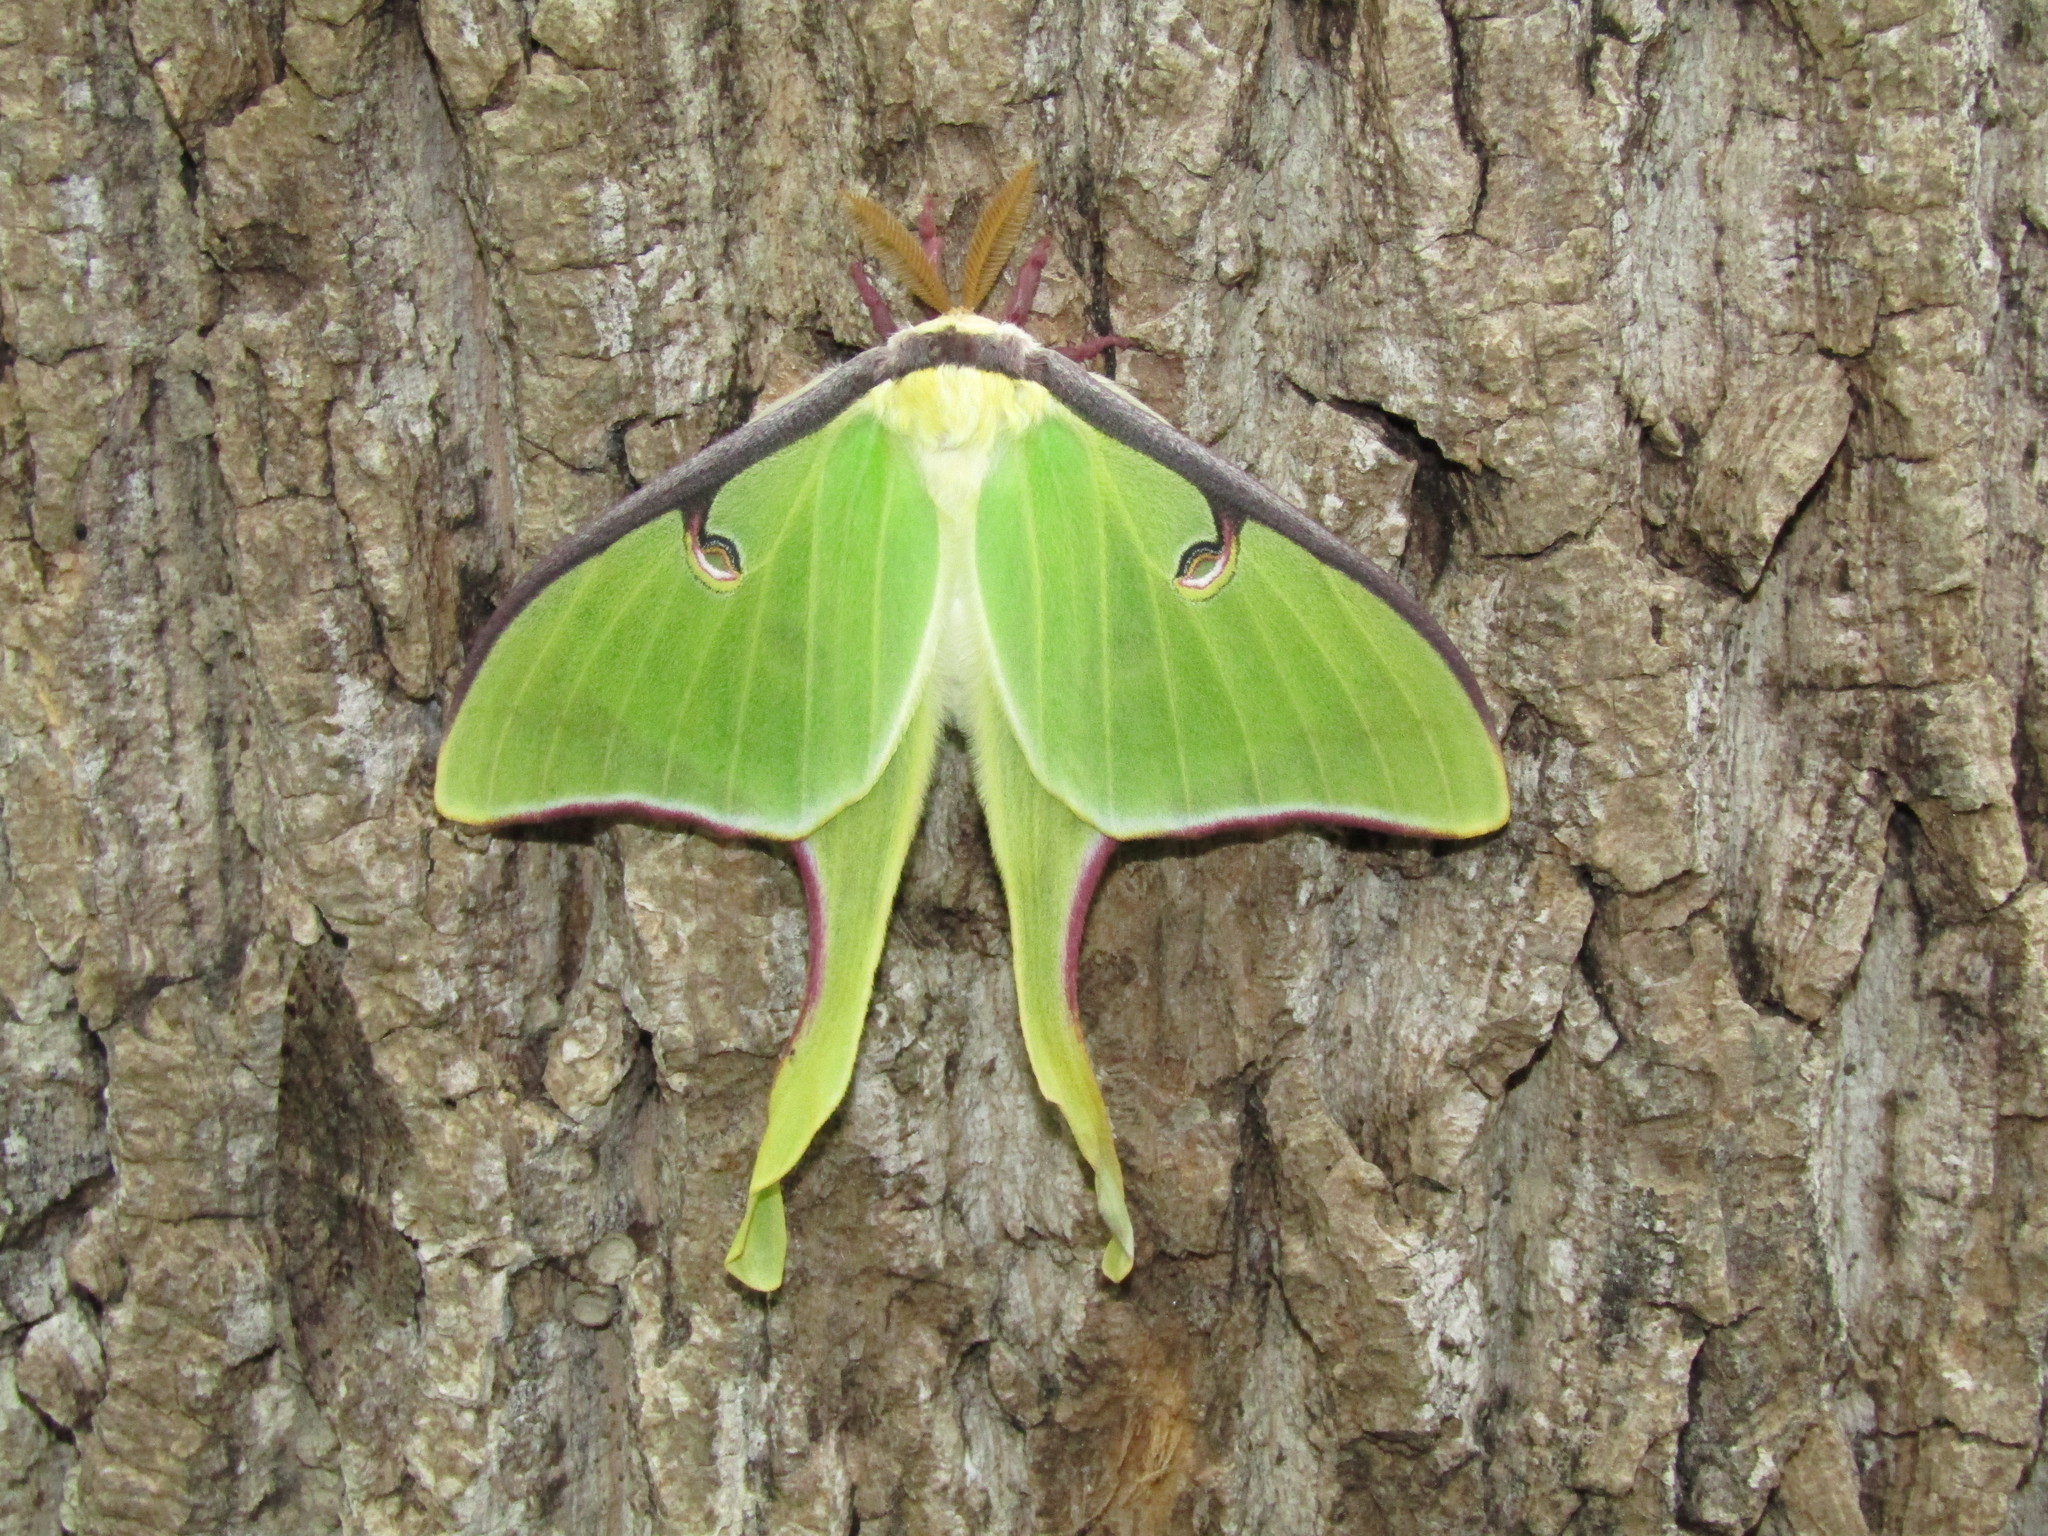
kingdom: Animalia
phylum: Arthropoda
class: Insecta
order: Lepidoptera
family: Saturniidae
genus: Actias
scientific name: Actias luna
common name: Luna moth
